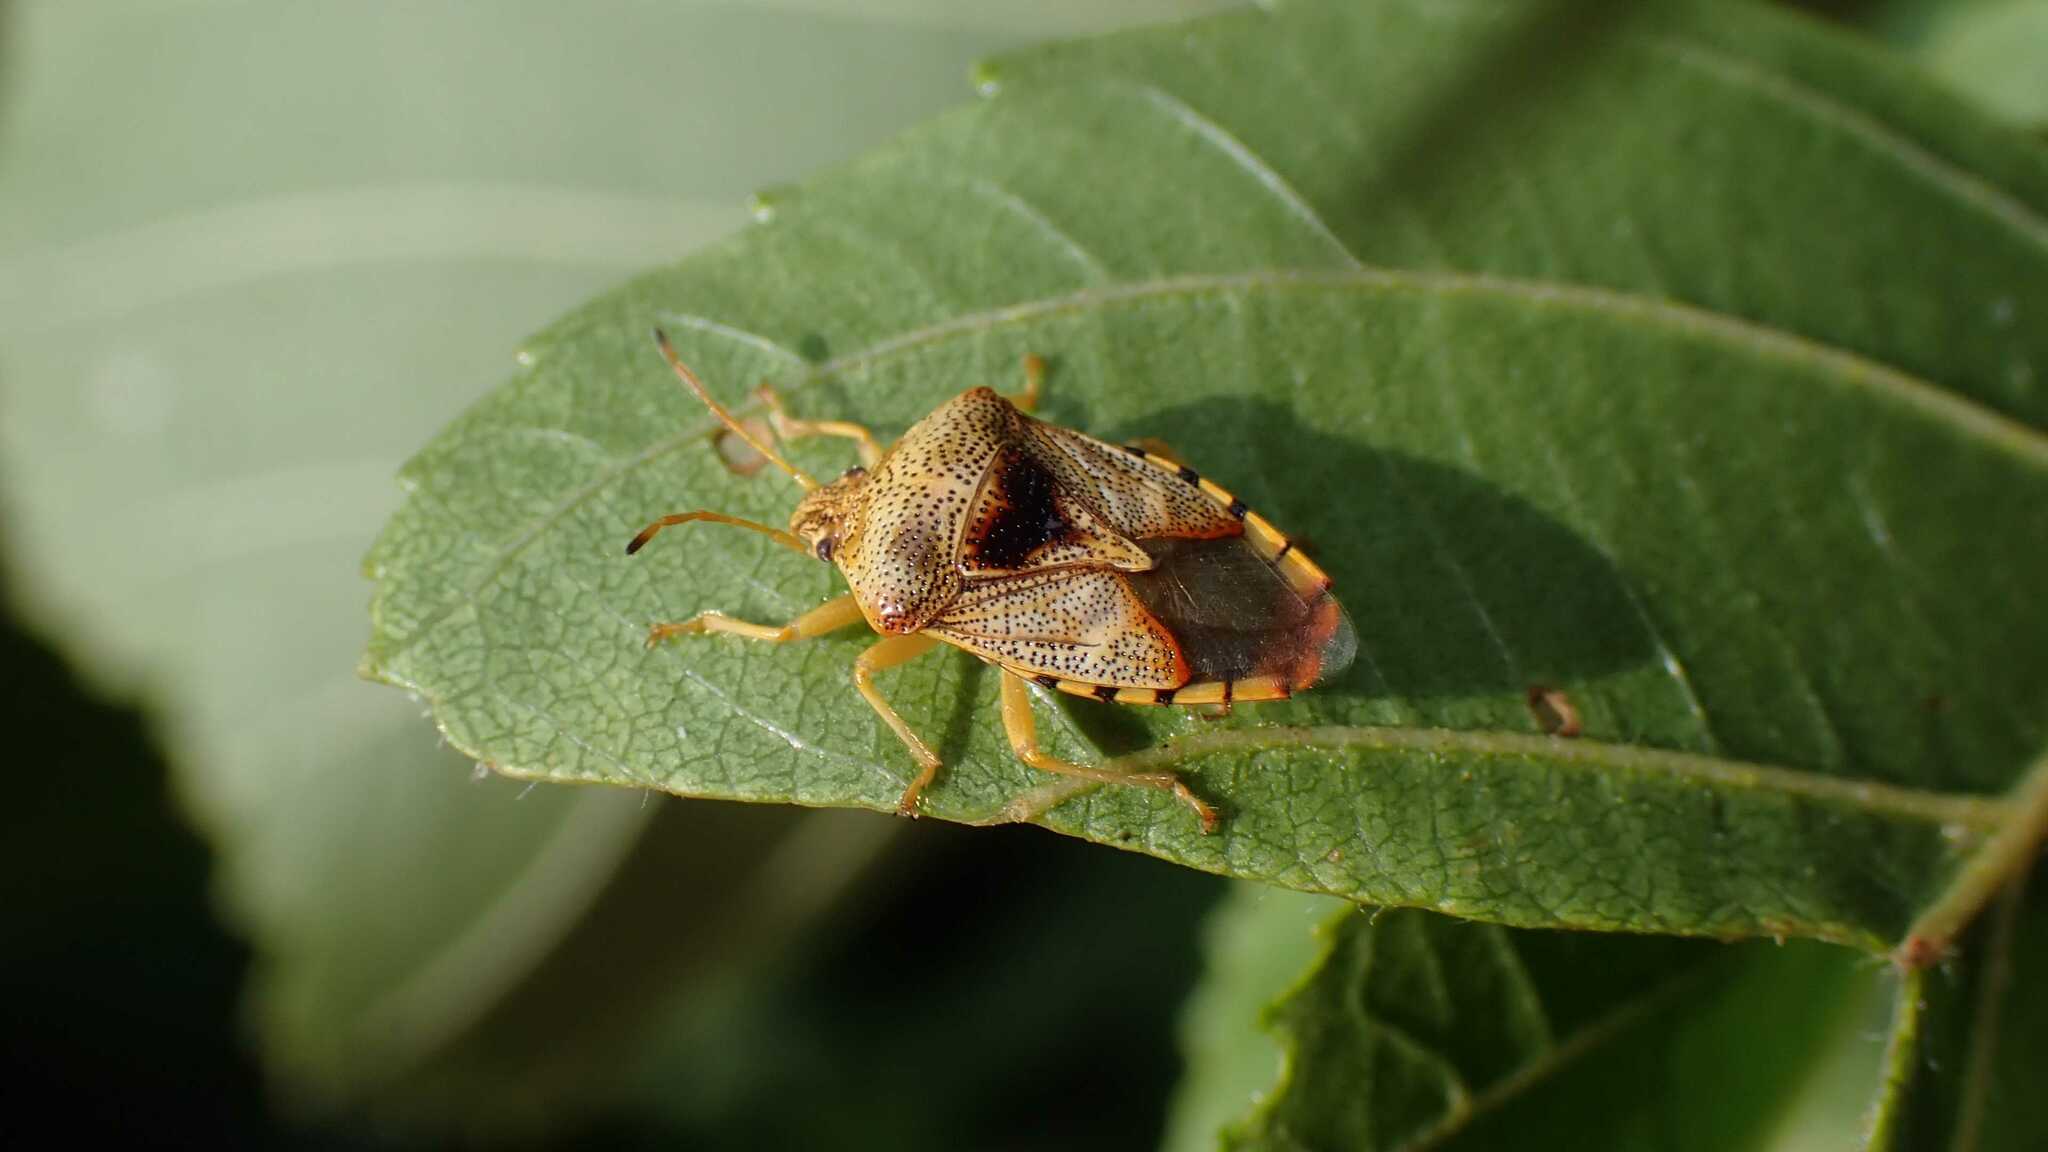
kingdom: Animalia
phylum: Arthropoda
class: Insecta
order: Hemiptera
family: Acanthosomatidae
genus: Elasmucha
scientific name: Elasmucha grisea
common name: Parent bug
